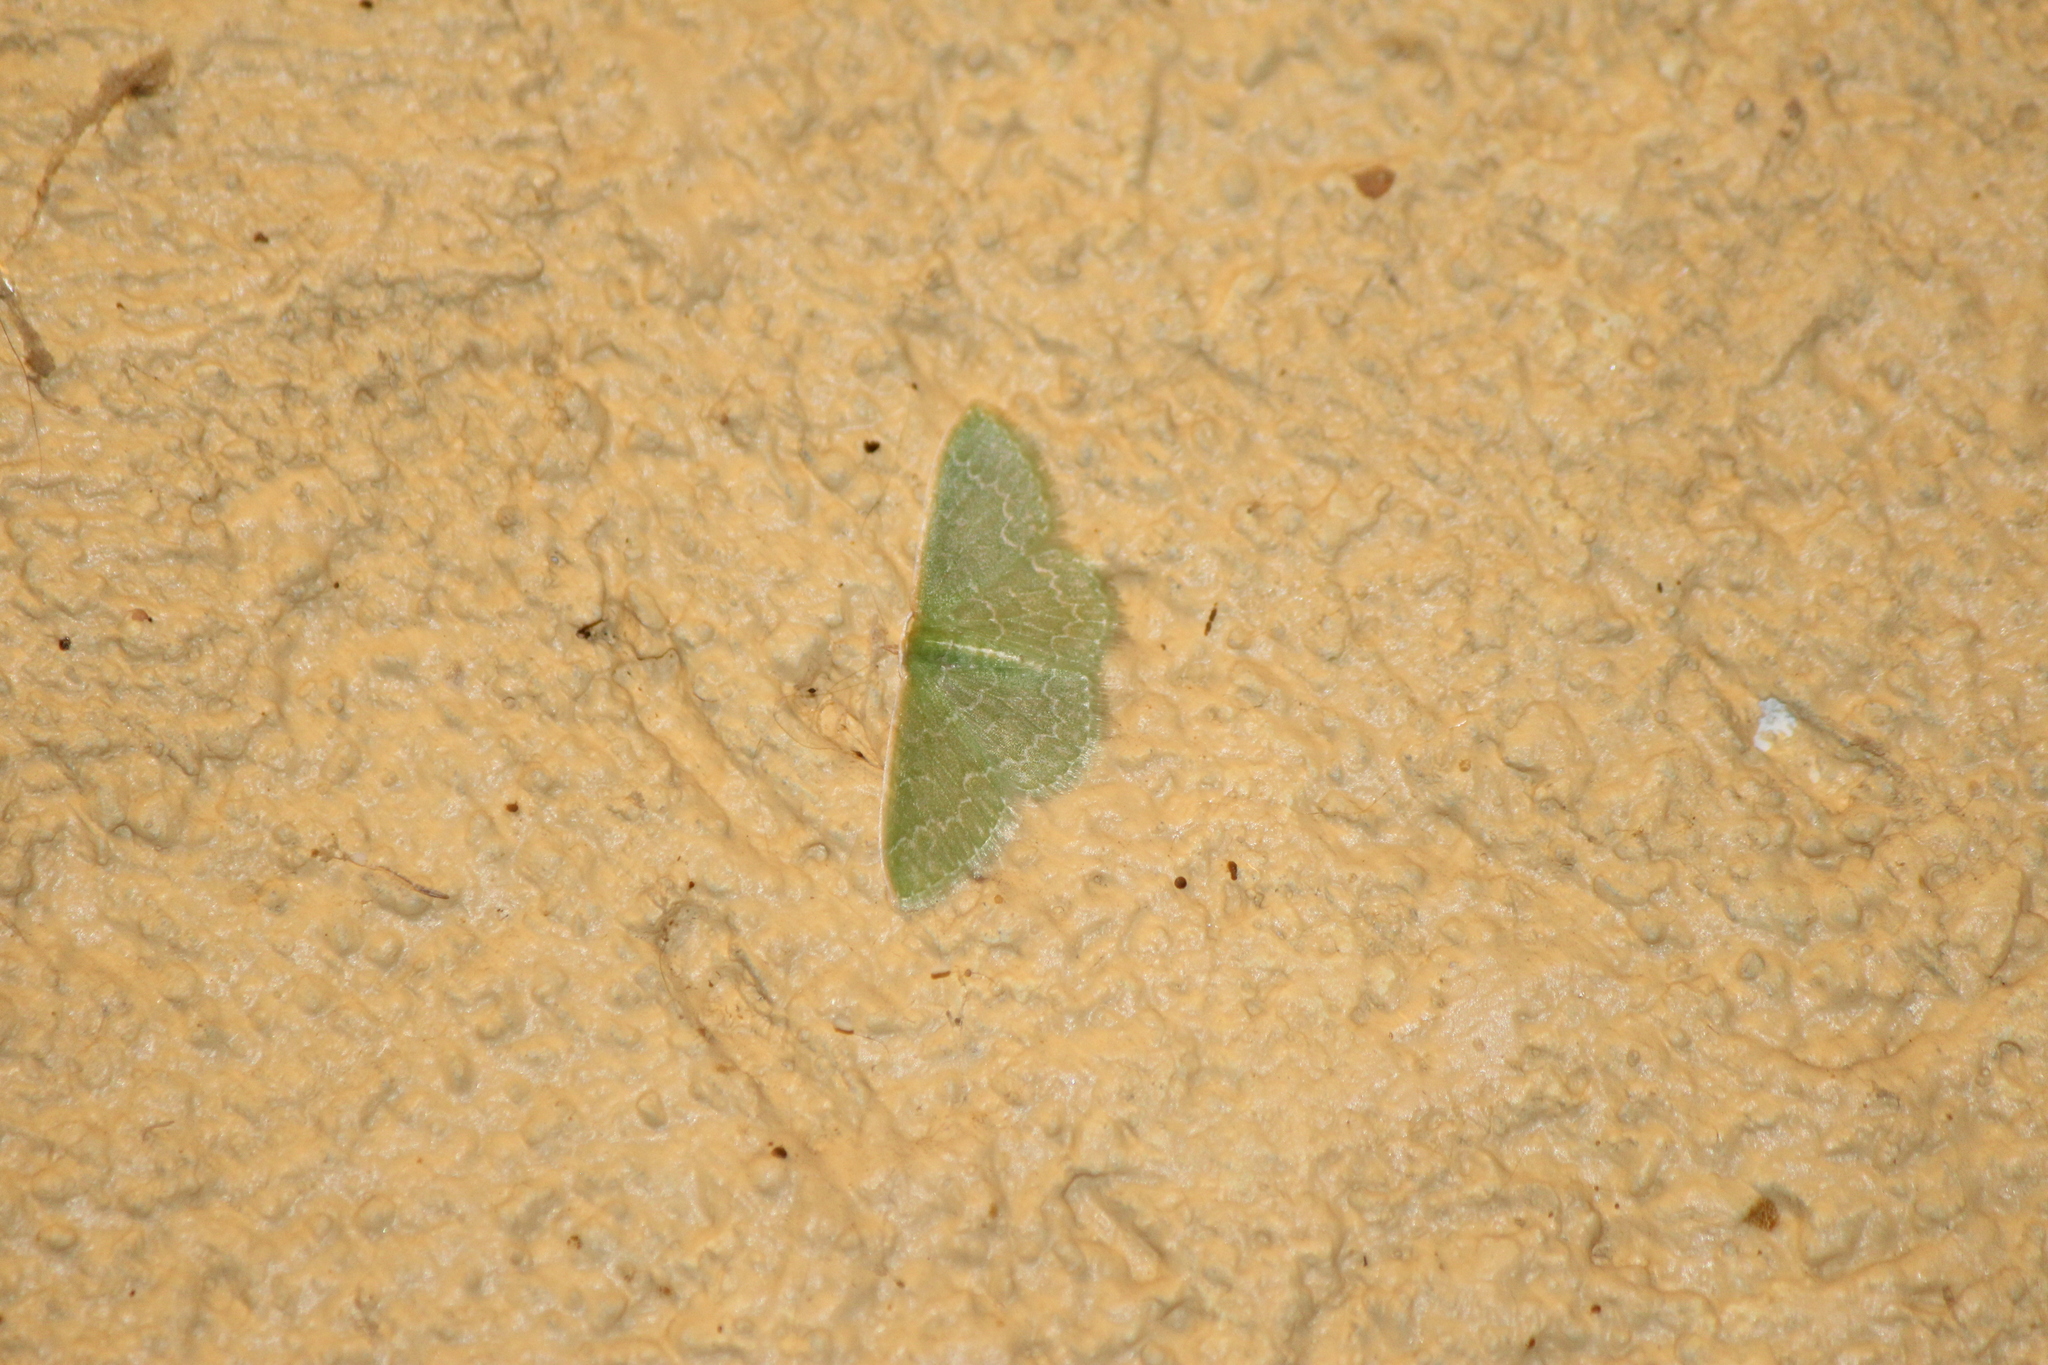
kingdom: Animalia
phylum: Arthropoda
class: Insecta
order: Lepidoptera
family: Geometridae
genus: Synchlora
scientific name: Synchlora frondaria
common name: Southern emerald
